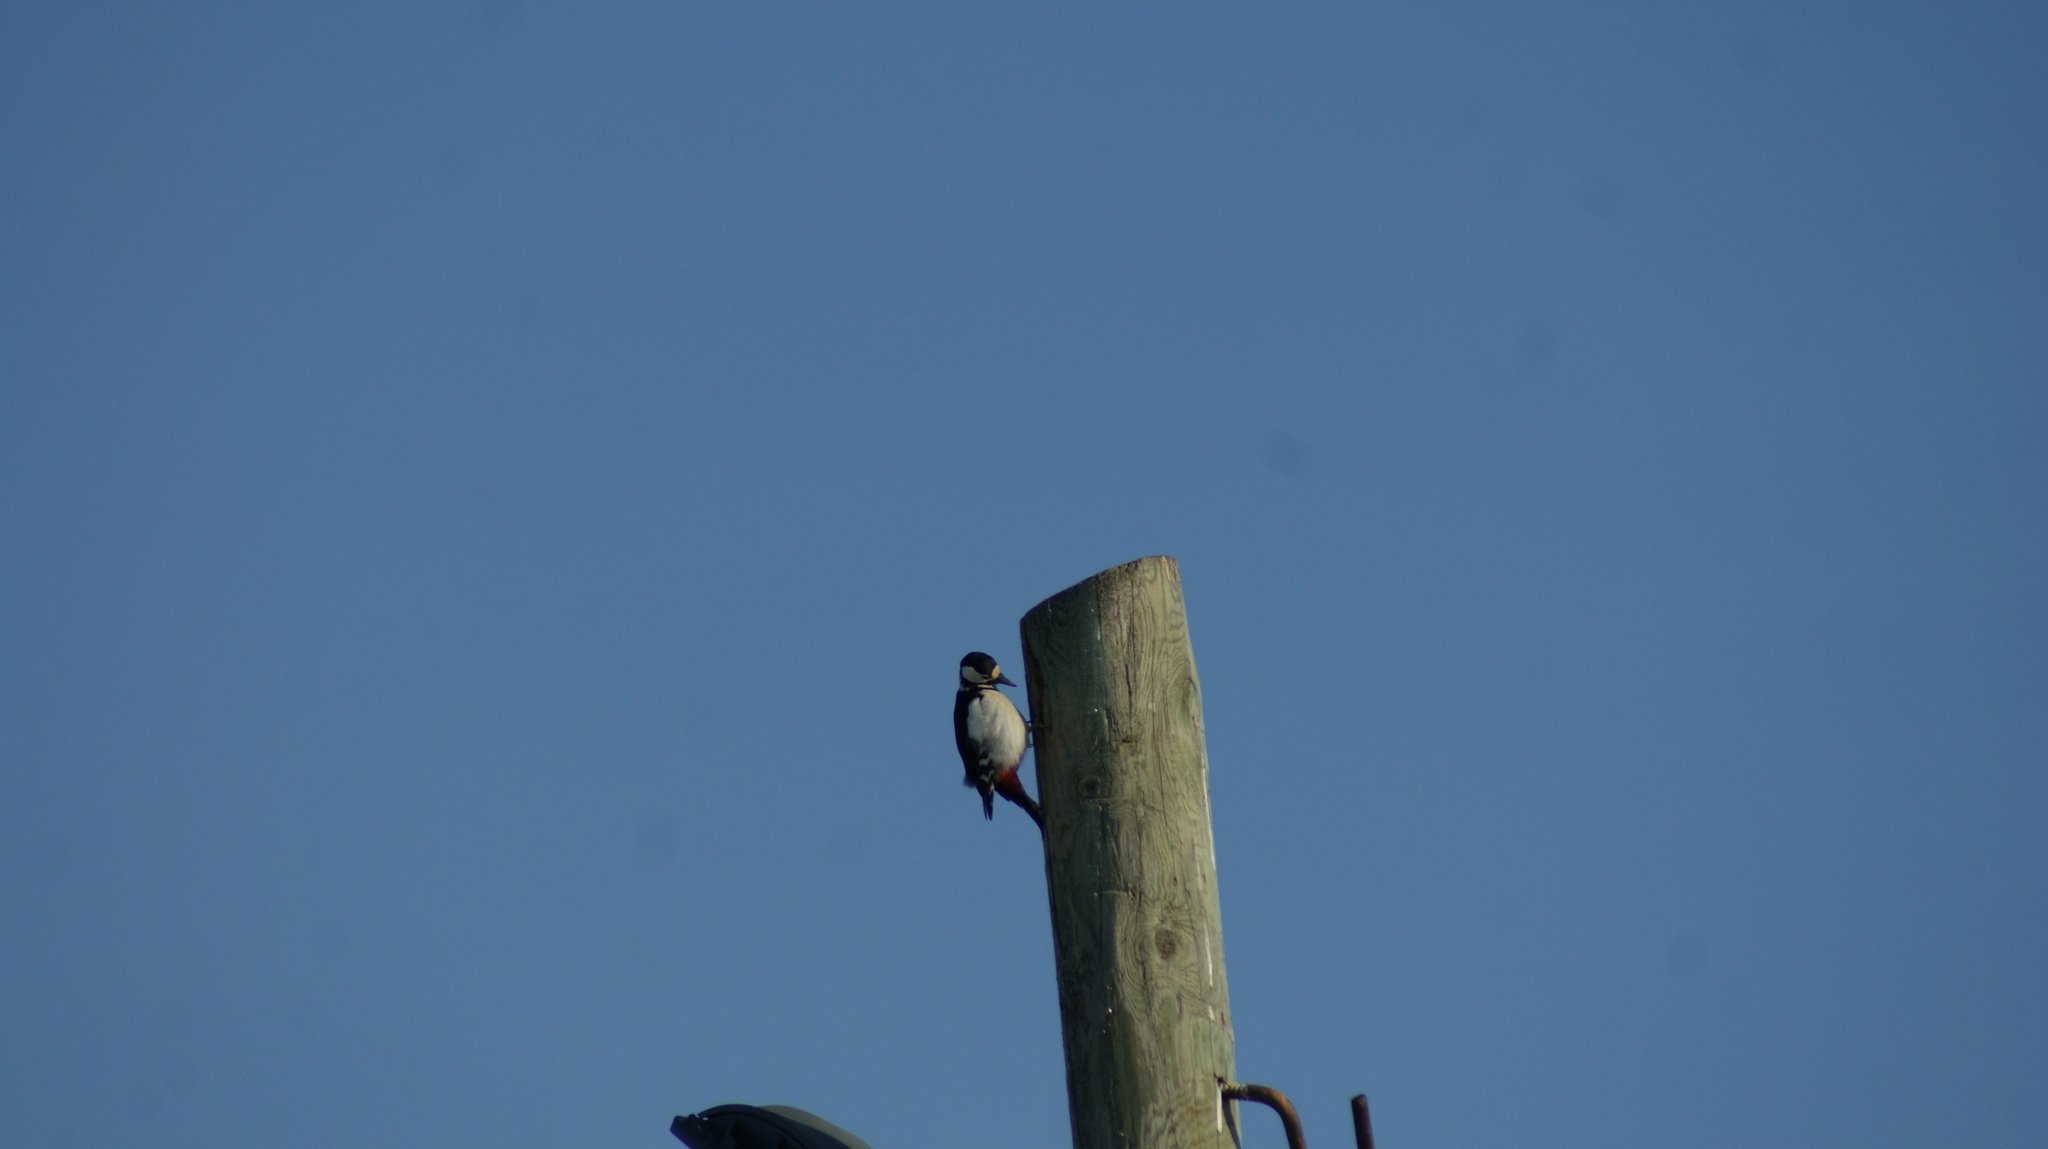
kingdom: Animalia
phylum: Chordata
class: Aves
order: Piciformes
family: Picidae
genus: Dendrocopos
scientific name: Dendrocopos major
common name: Great spotted woodpecker
